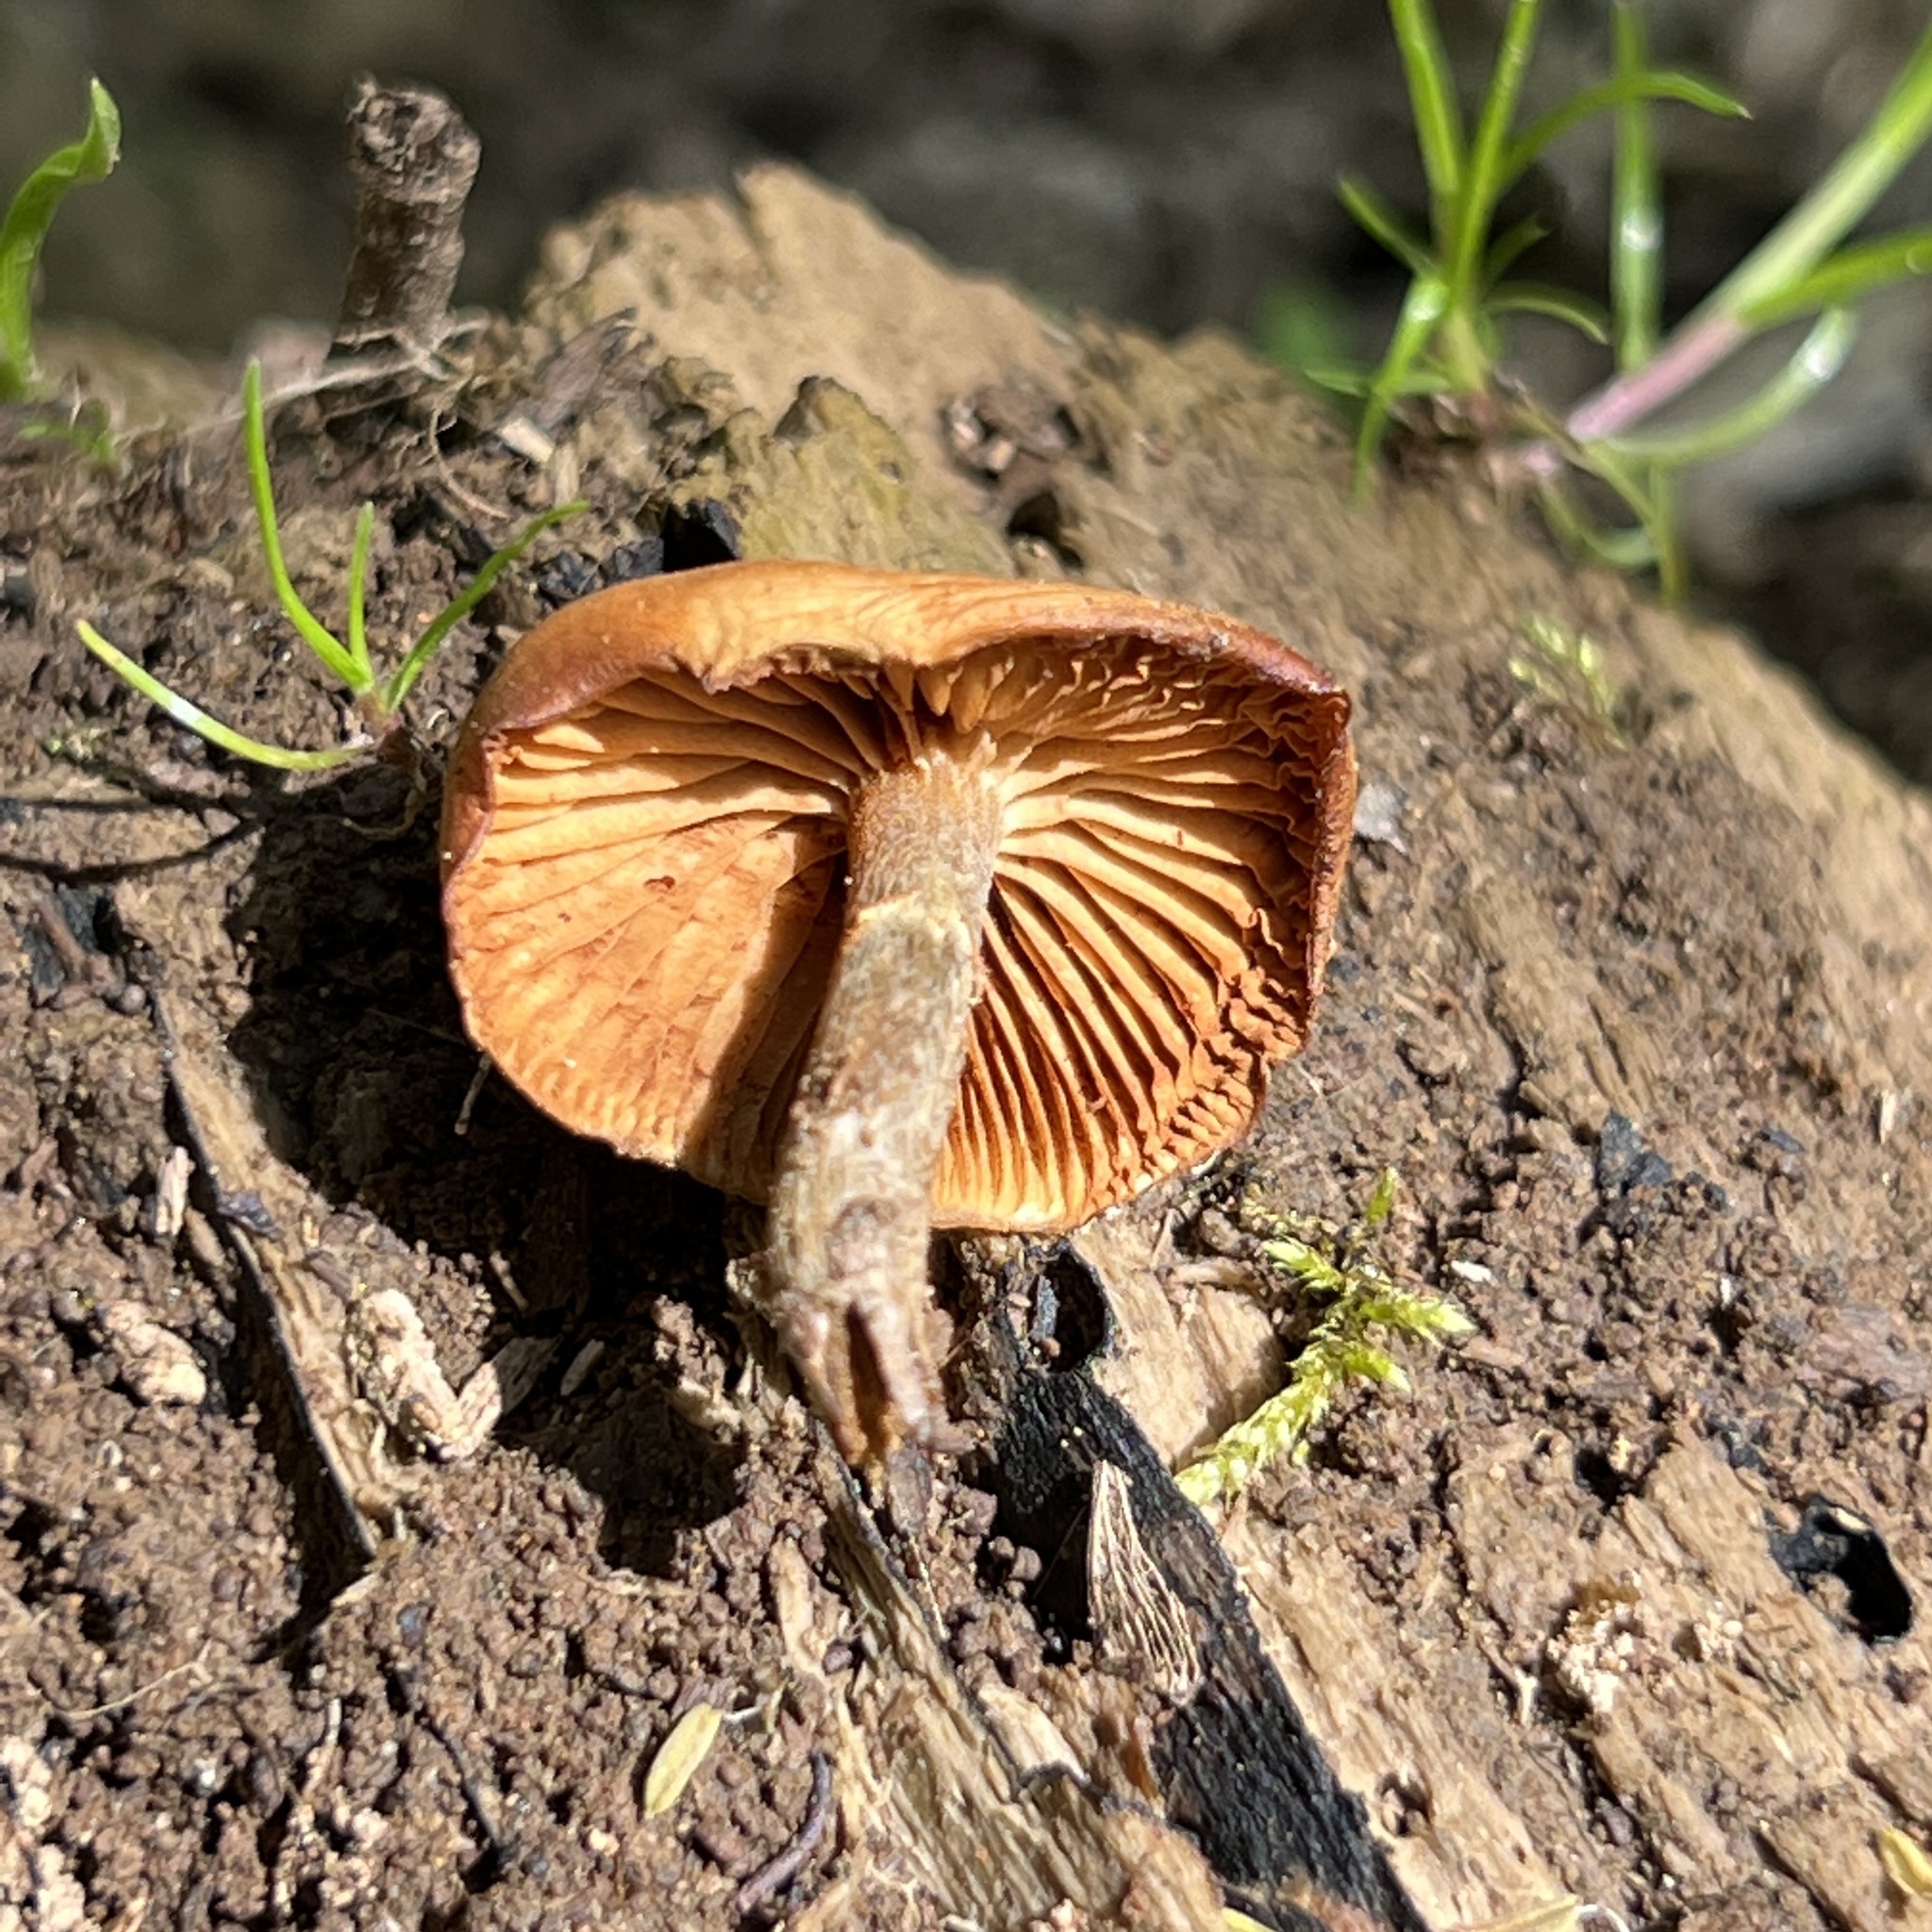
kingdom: Fungi
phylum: Basidiomycota
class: Agaricomycetes
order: Agaricales
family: Hymenogastraceae
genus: Galerina
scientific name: Galerina marginata
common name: Funeral bell
